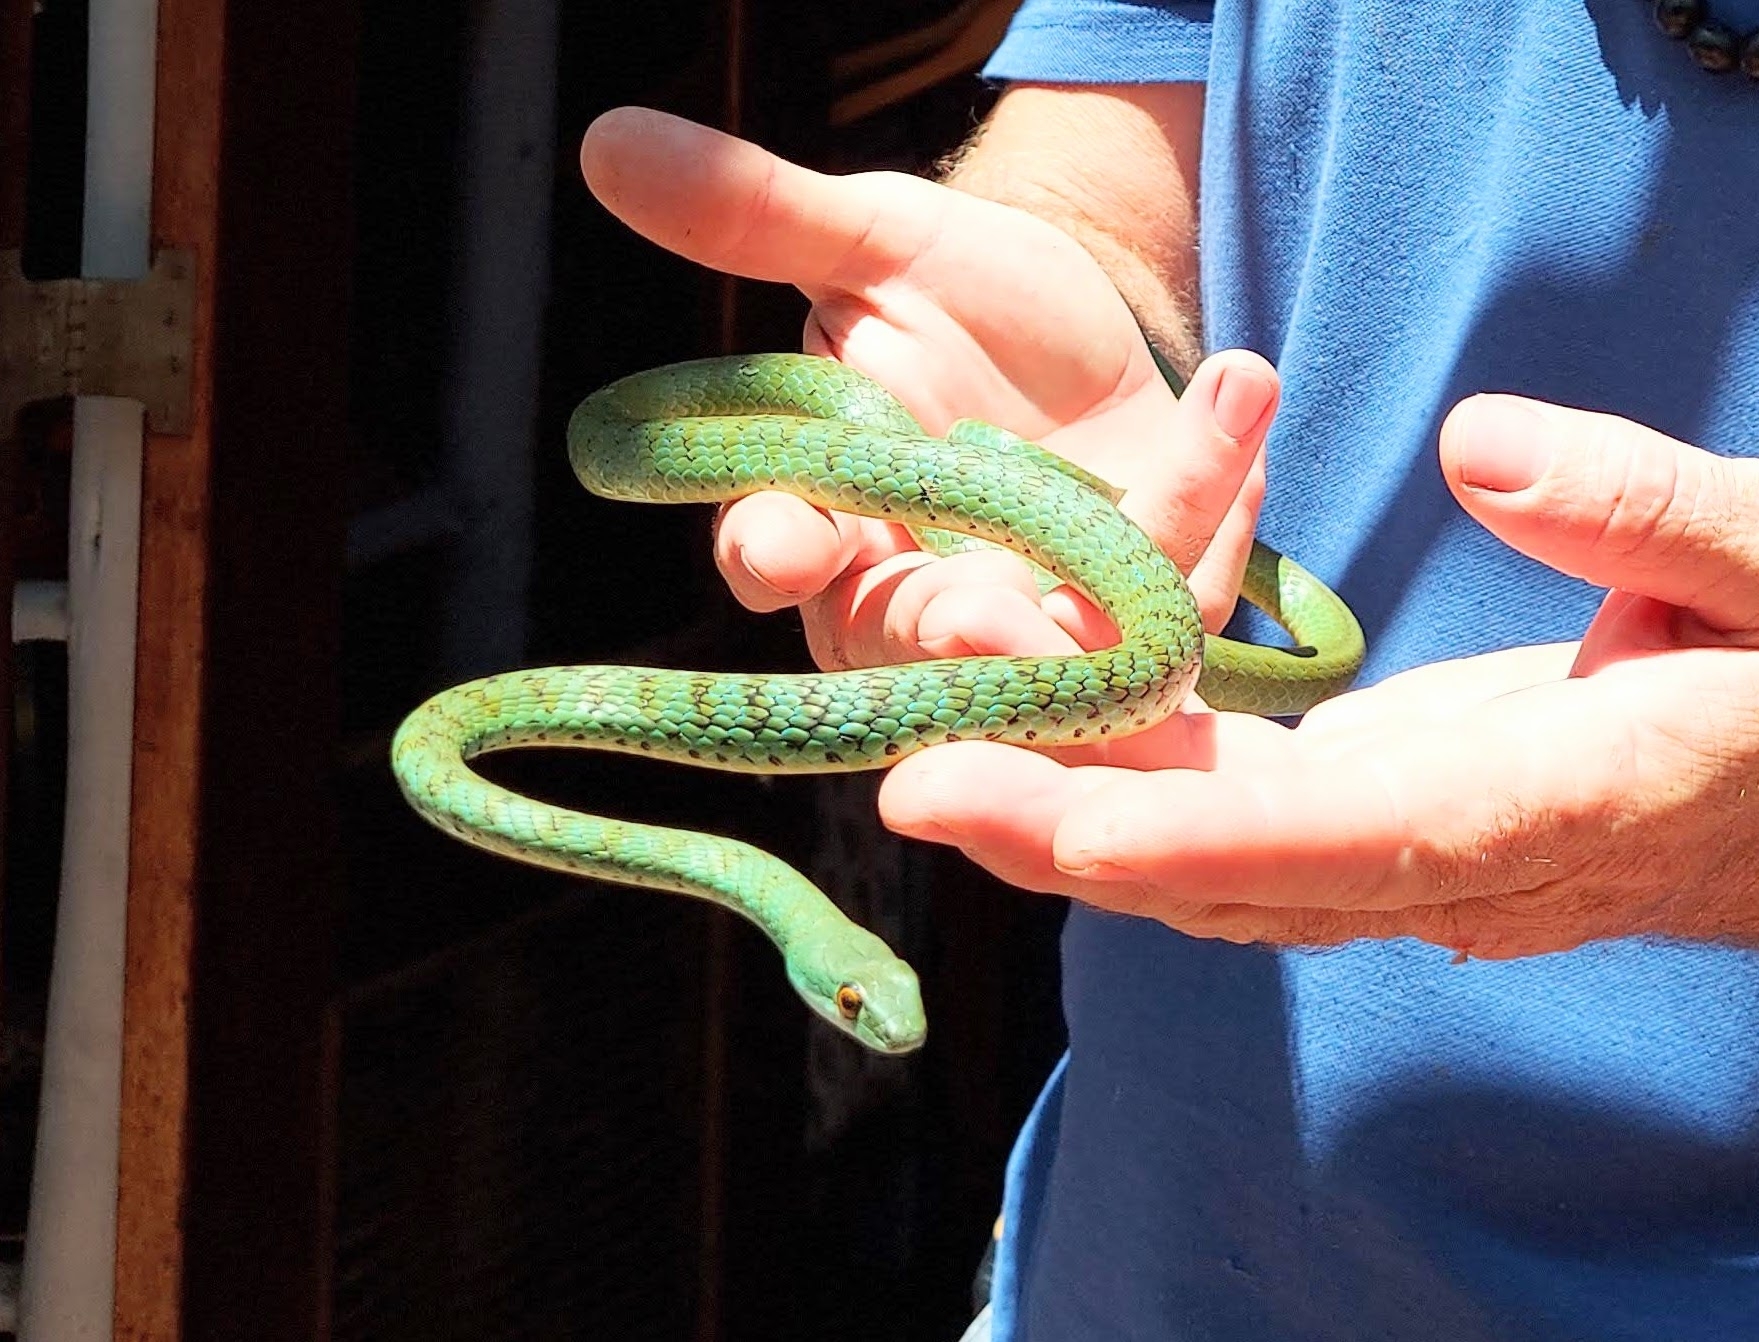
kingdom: Animalia
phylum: Chordata
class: Squamata
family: Colubridae
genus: Philothamnus
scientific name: Philothamnus semivariegatus
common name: Spotted bush snake
